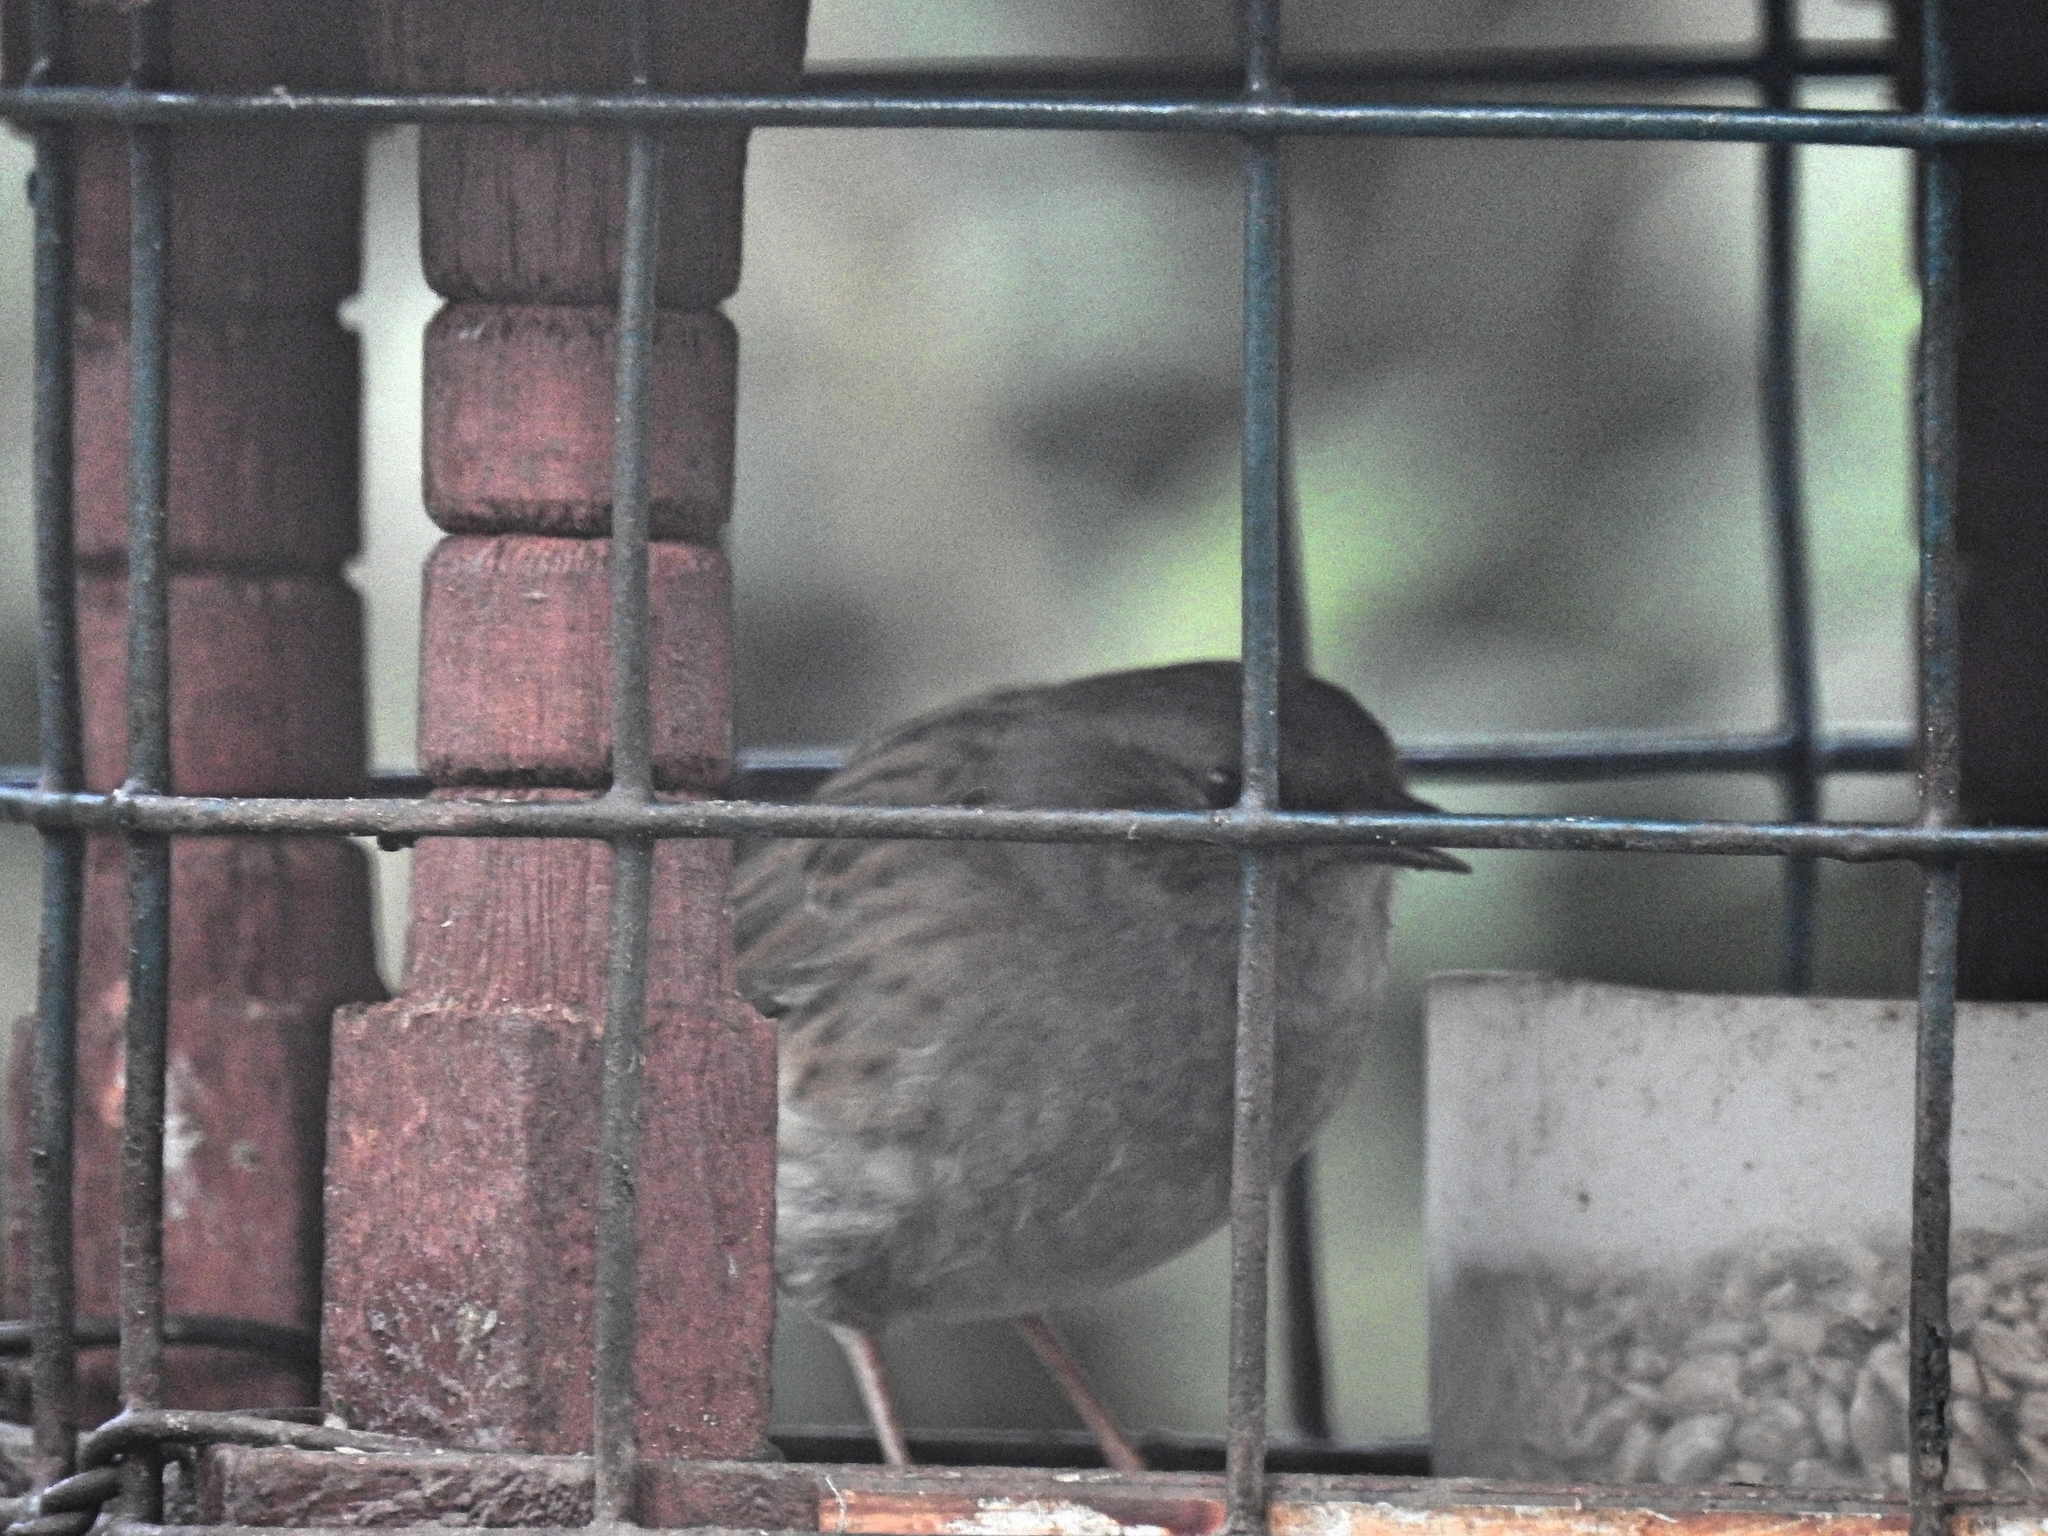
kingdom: Animalia
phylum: Chordata
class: Aves
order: Passeriformes
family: Prunellidae
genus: Prunella
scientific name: Prunella modularis
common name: Dunnock
